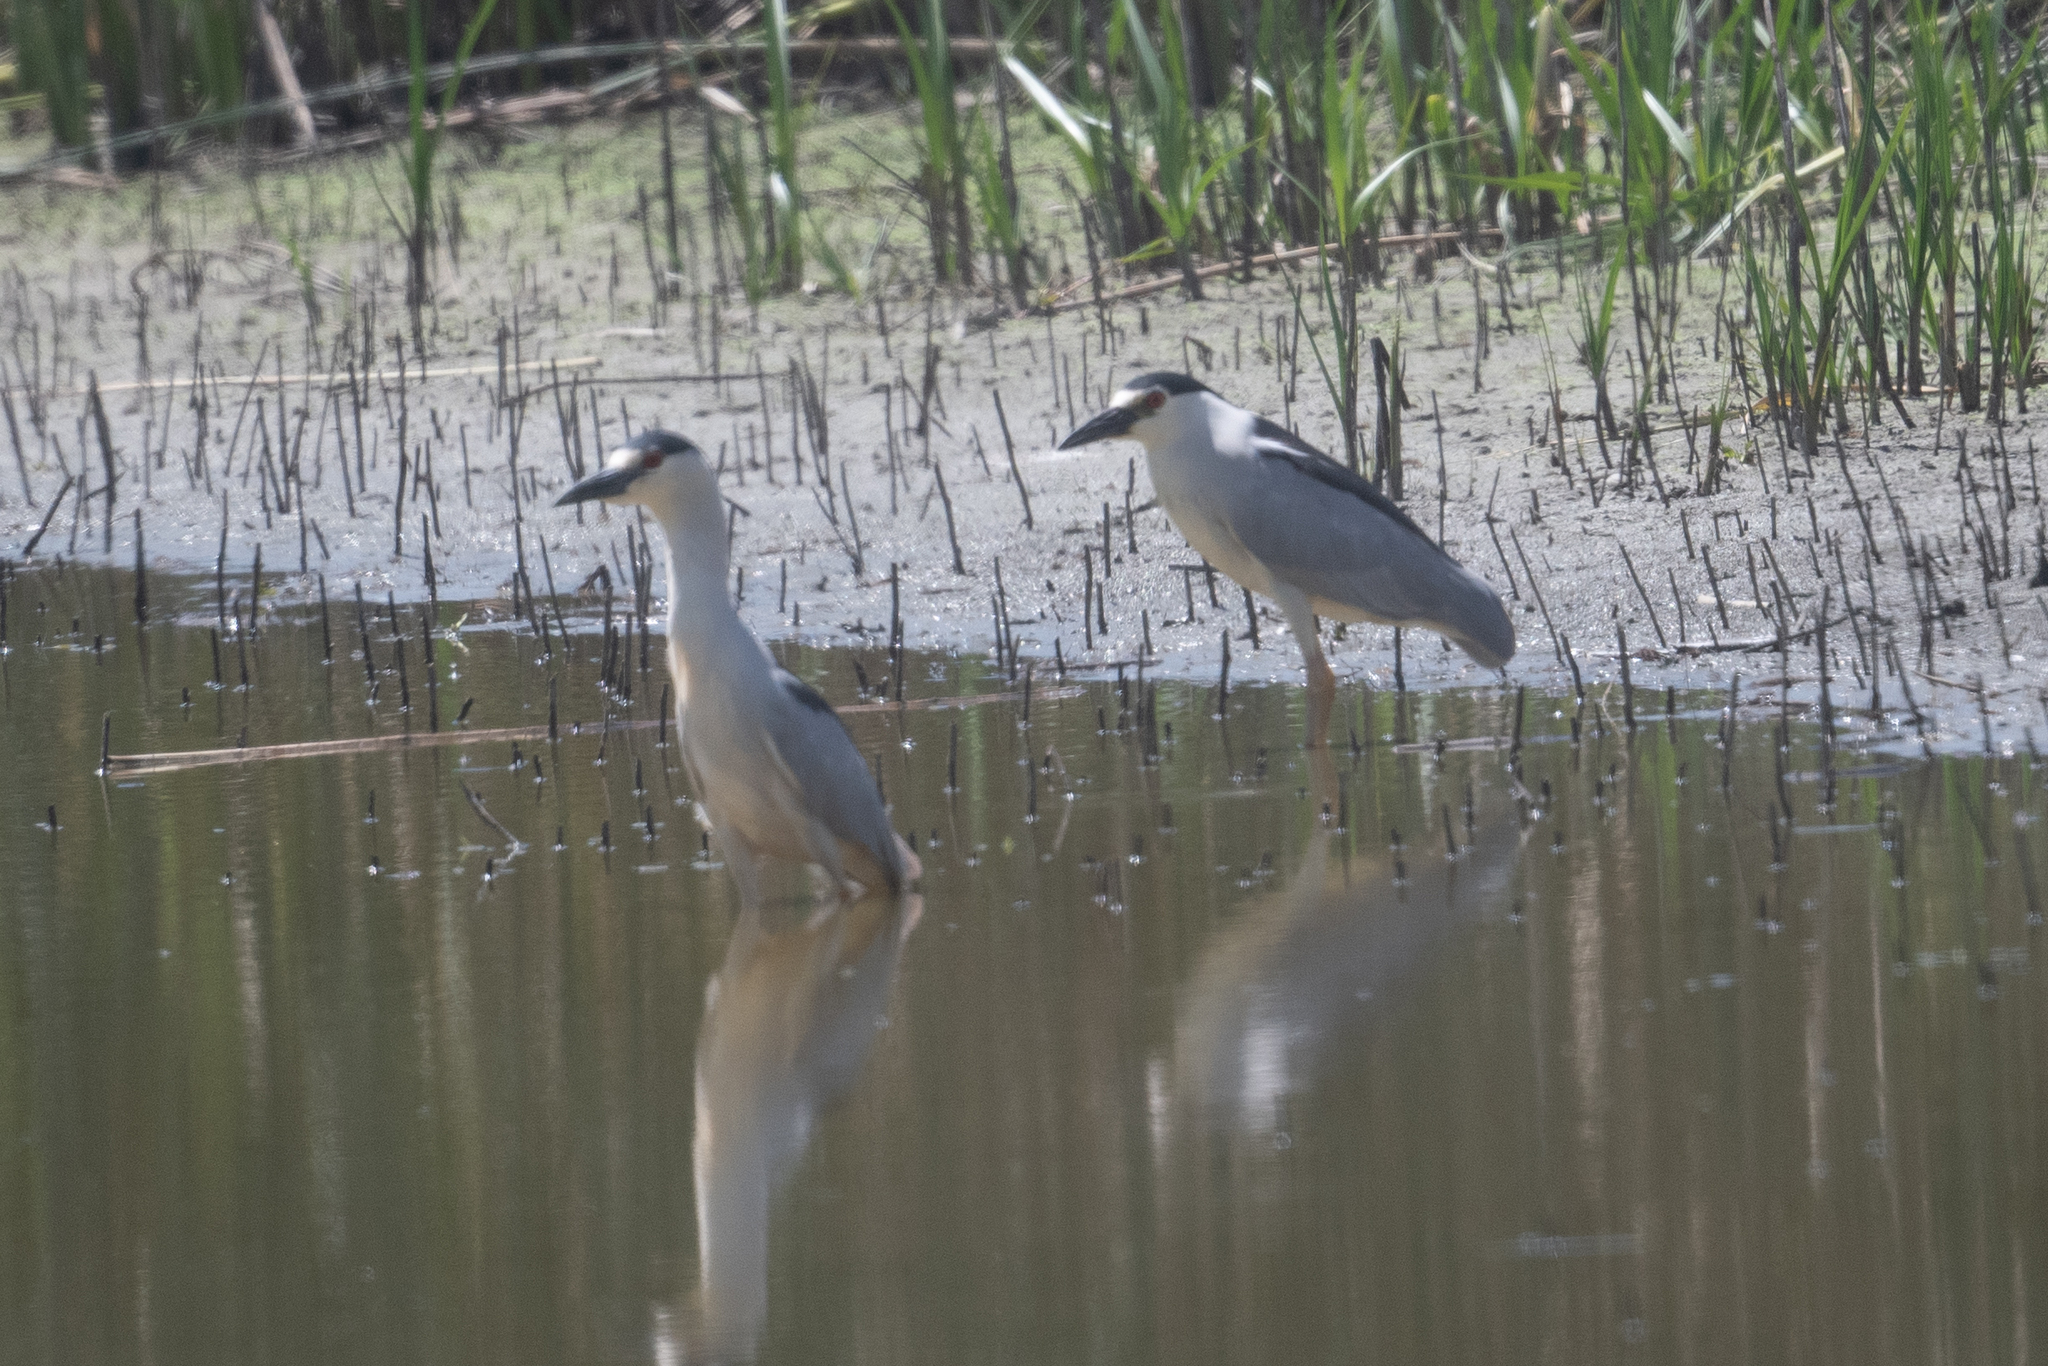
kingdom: Animalia
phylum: Chordata
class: Aves
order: Pelecaniformes
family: Ardeidae
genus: Nycticorax
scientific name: Nycticorax nycticorax
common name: Black-crowned night heron
